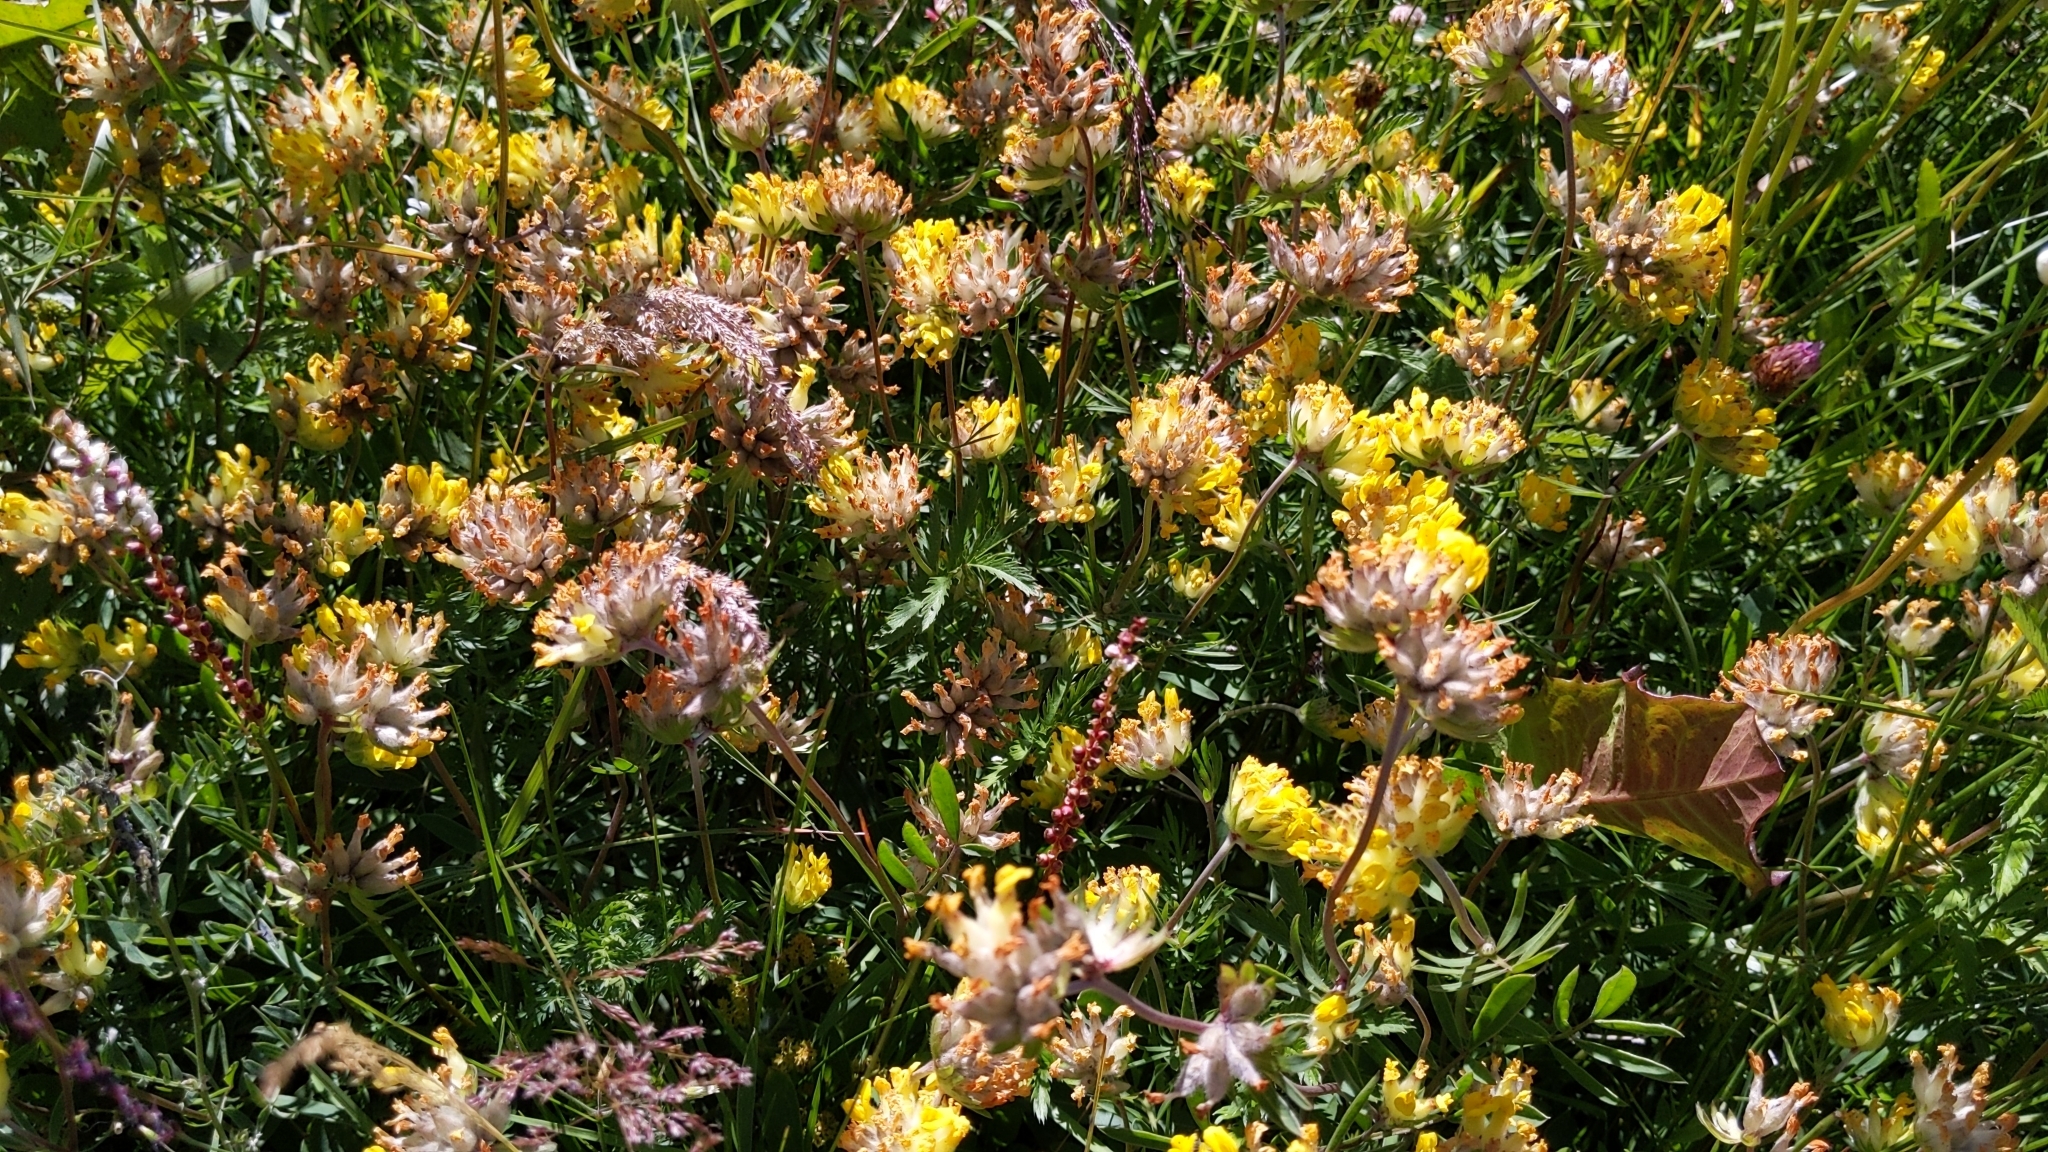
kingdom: Plantae
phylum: Tracheophyta
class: Magnoliopsida
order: Fabales
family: Fabaceae
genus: Anthyllis
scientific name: Anthyllis vulneraria
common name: Kidney vetch
